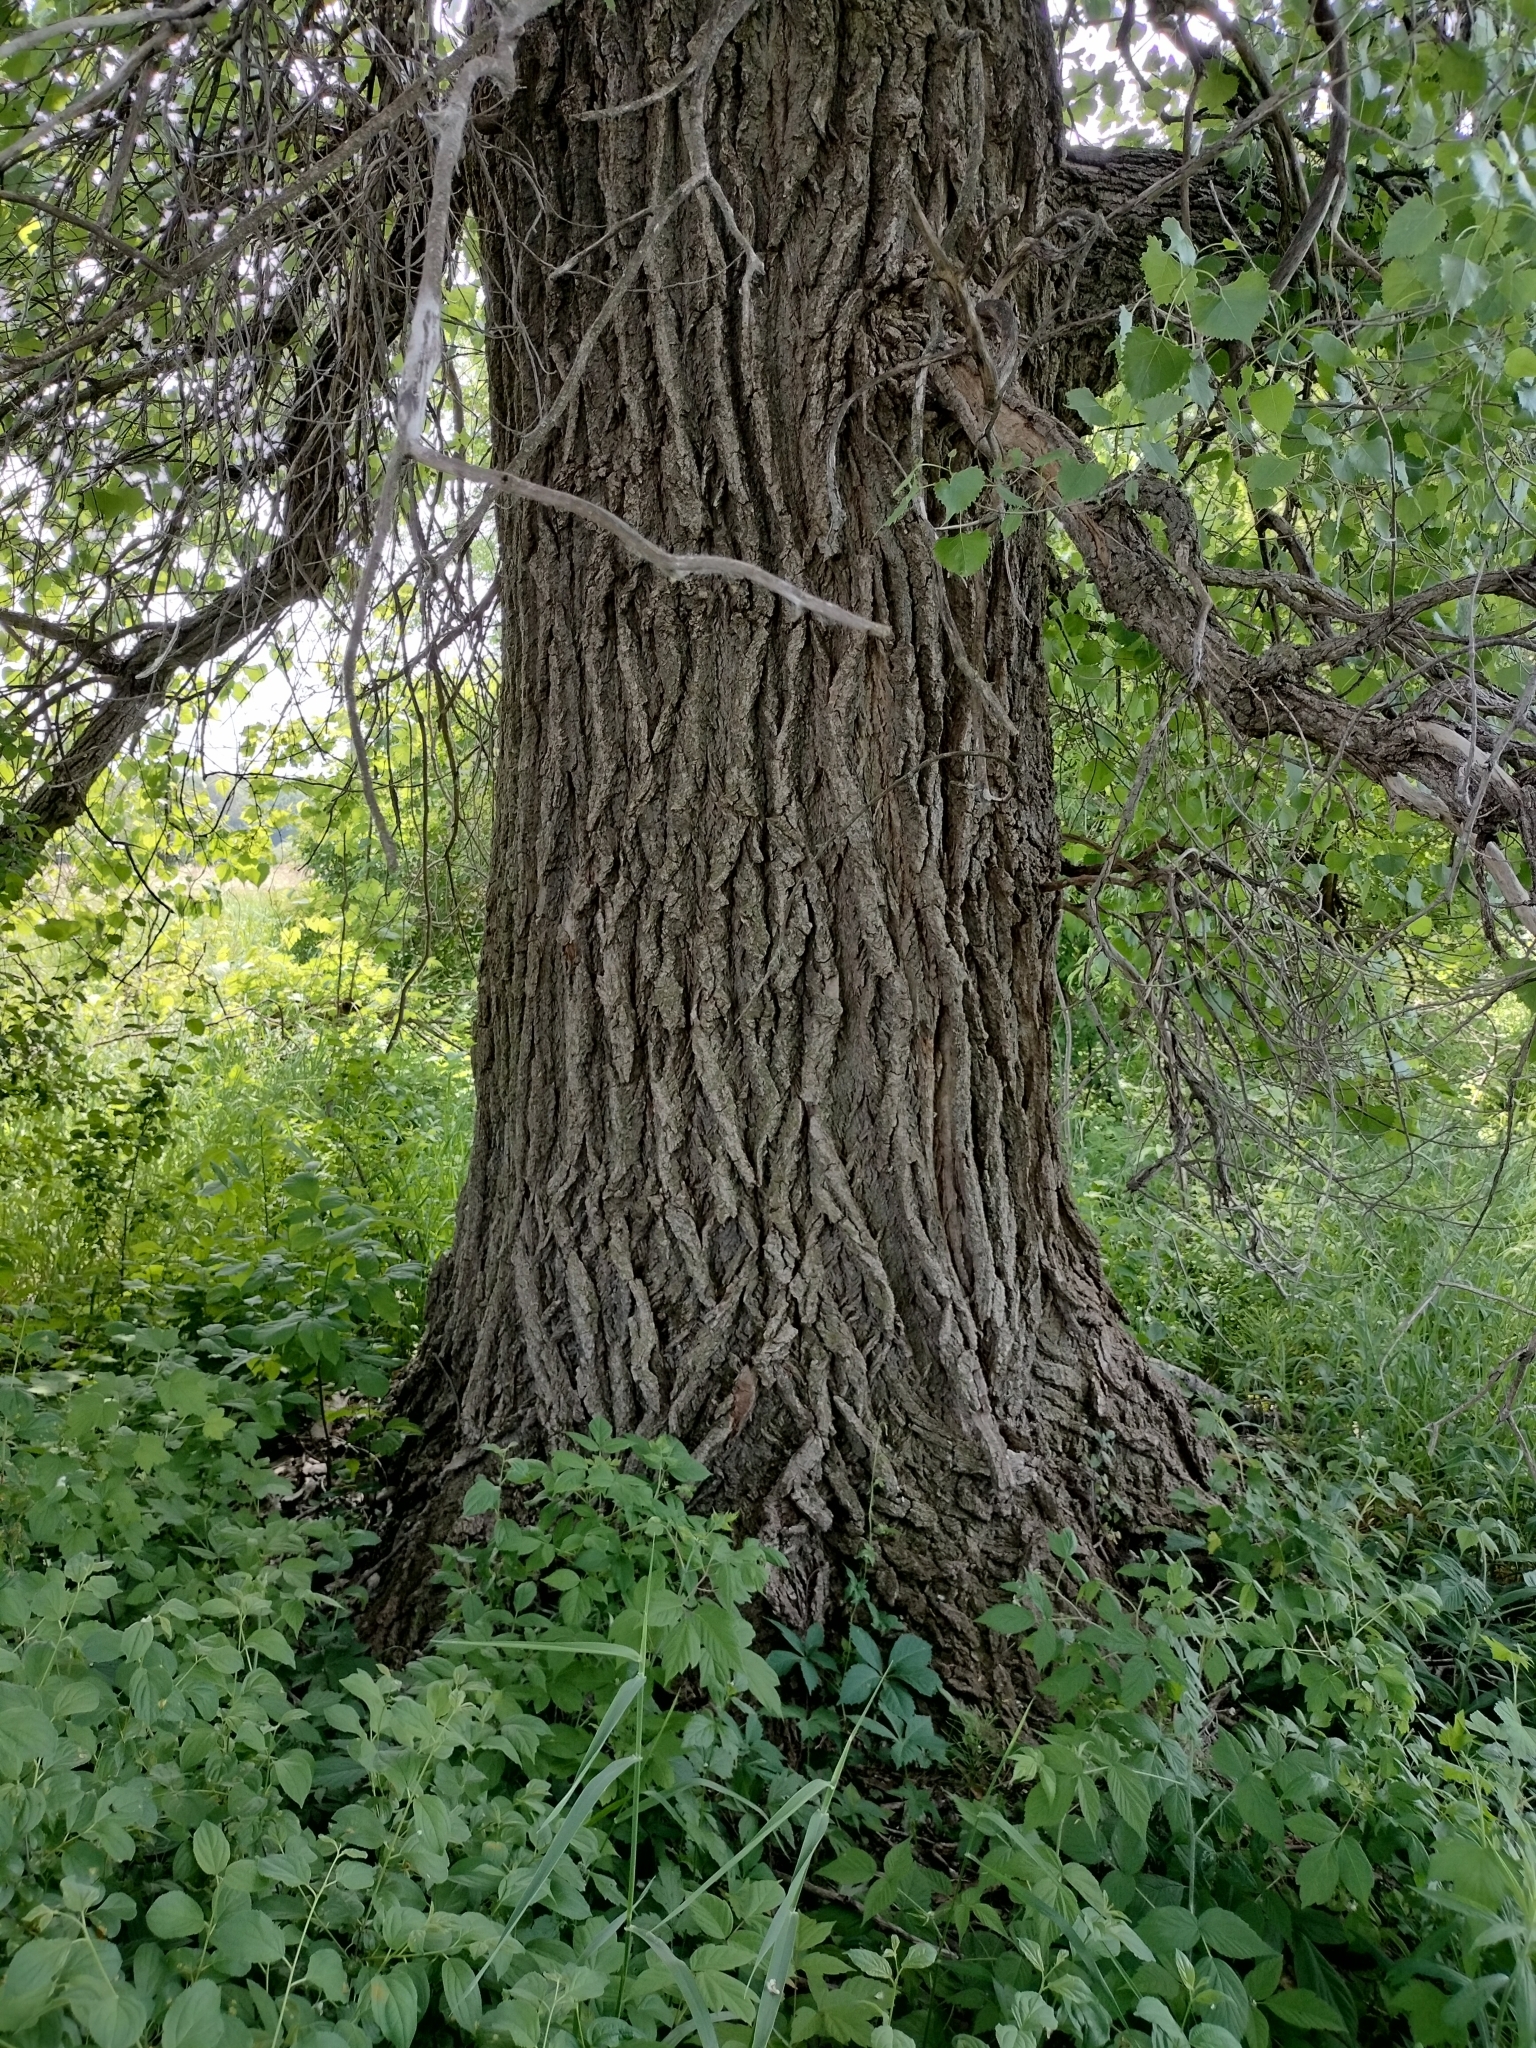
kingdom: Plantae
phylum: Tracheophyta
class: Magnoliopsida
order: Malpighiales
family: Salicaceae
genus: Populus
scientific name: Populus deltoides
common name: Eastern cottonwood
